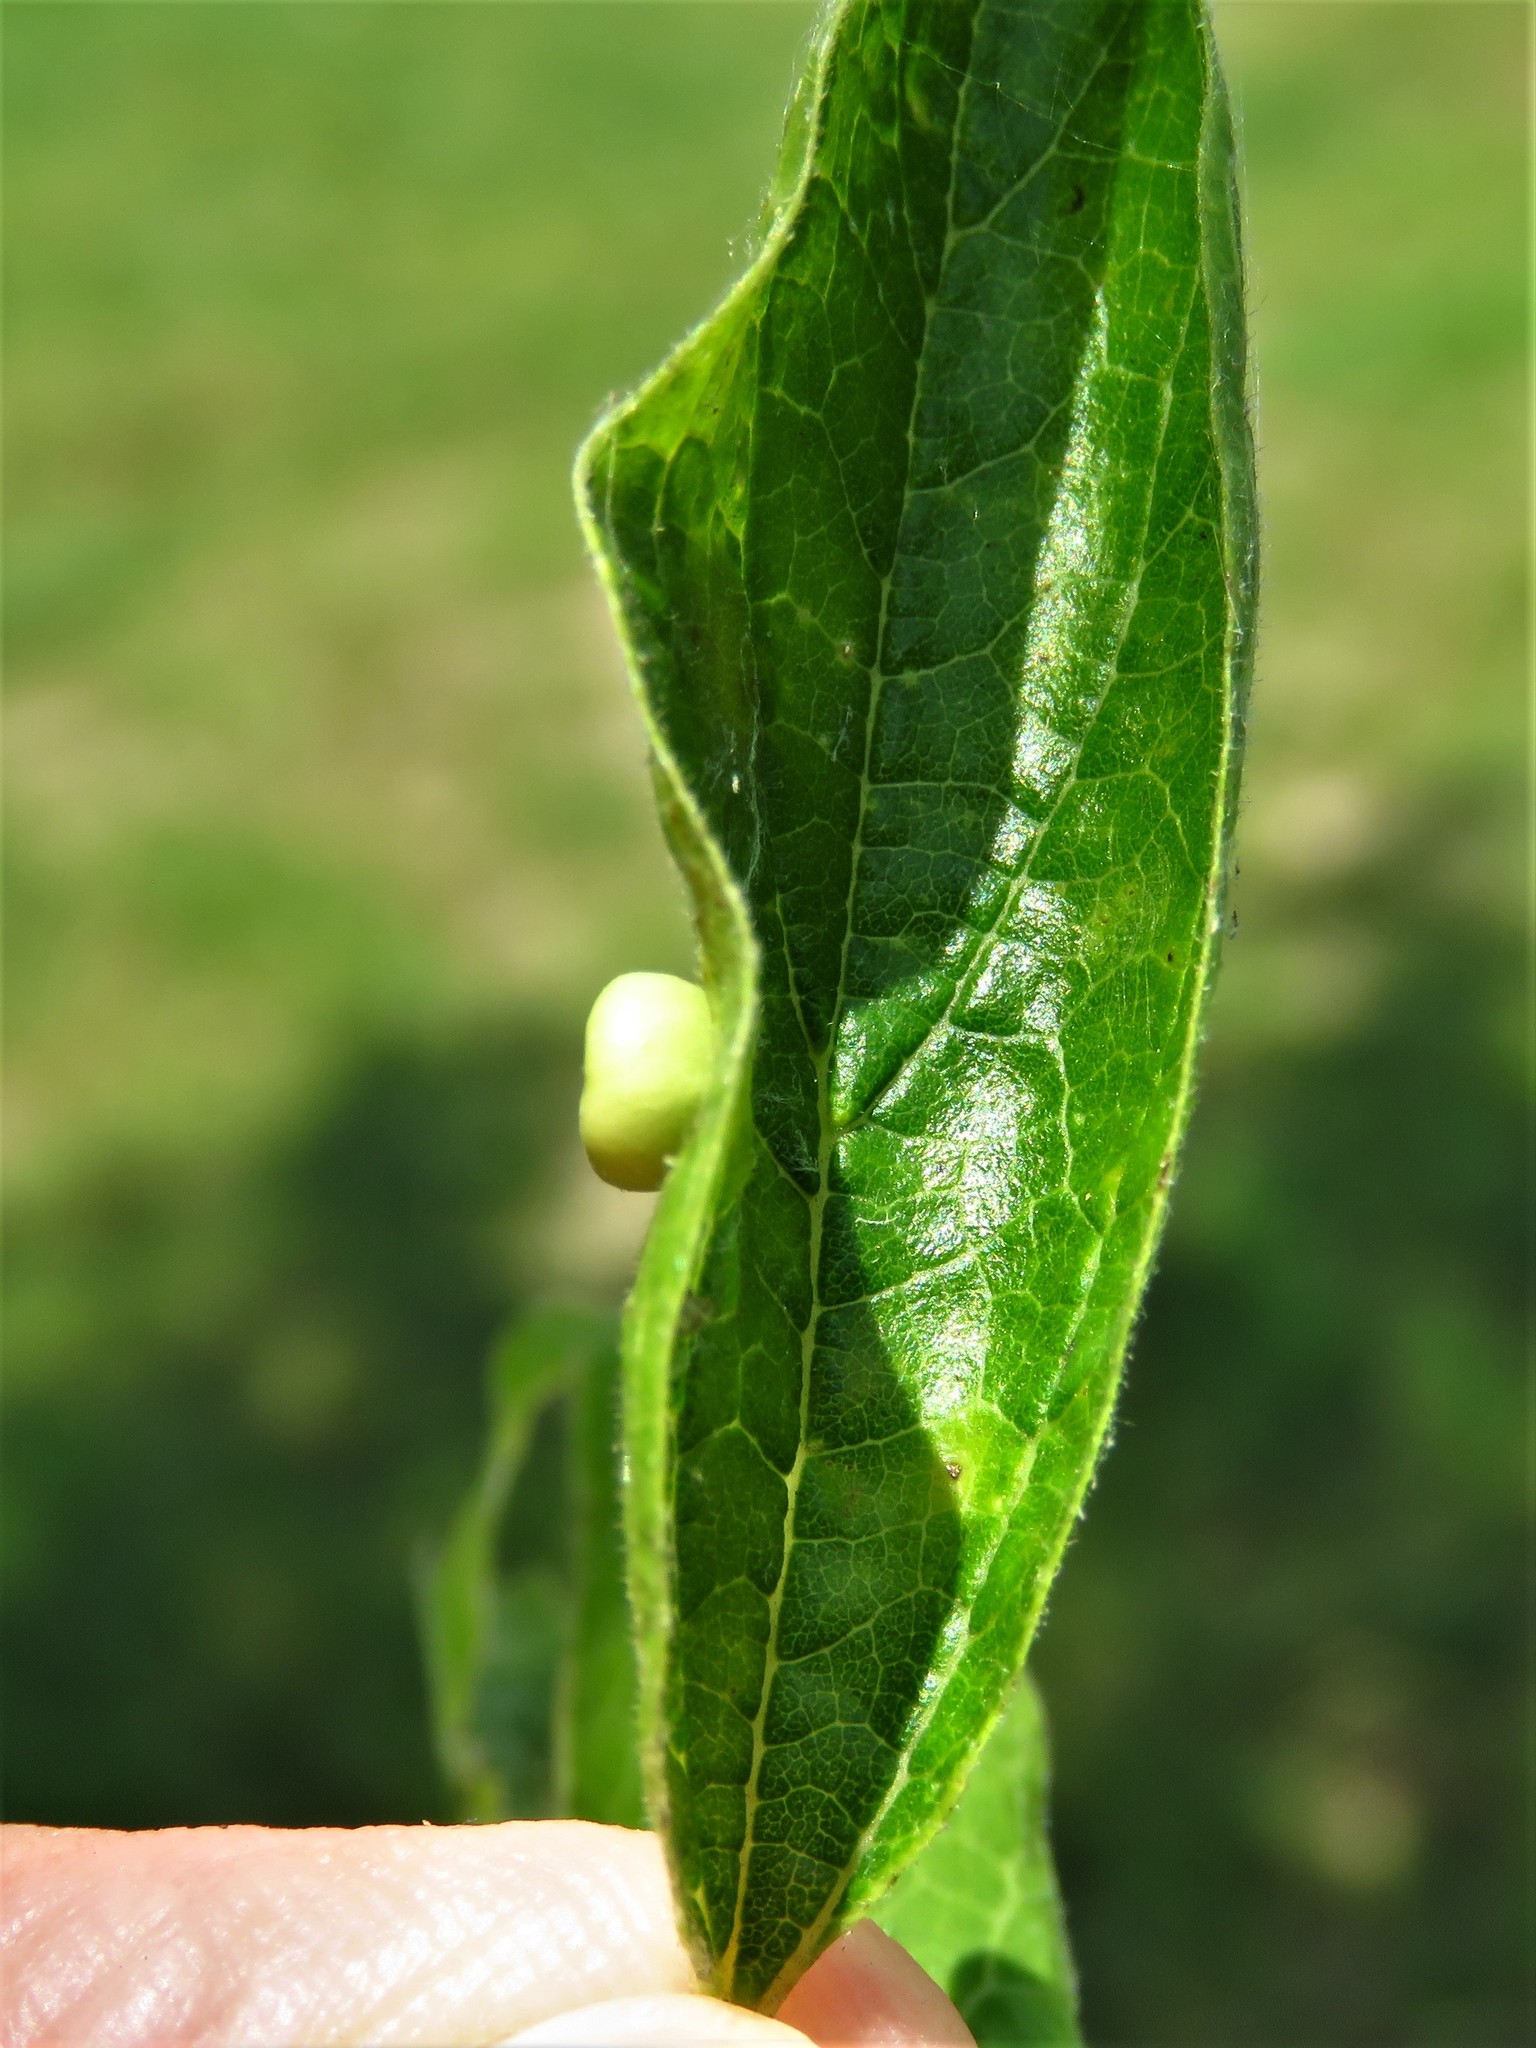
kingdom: Animalia
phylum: Arthropoda
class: Insecta
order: Hemiptera
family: Aphalaridae
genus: Pachypsylla
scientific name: Pachypsylla celtidismamma
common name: Hackberry nipplegall psyllid
